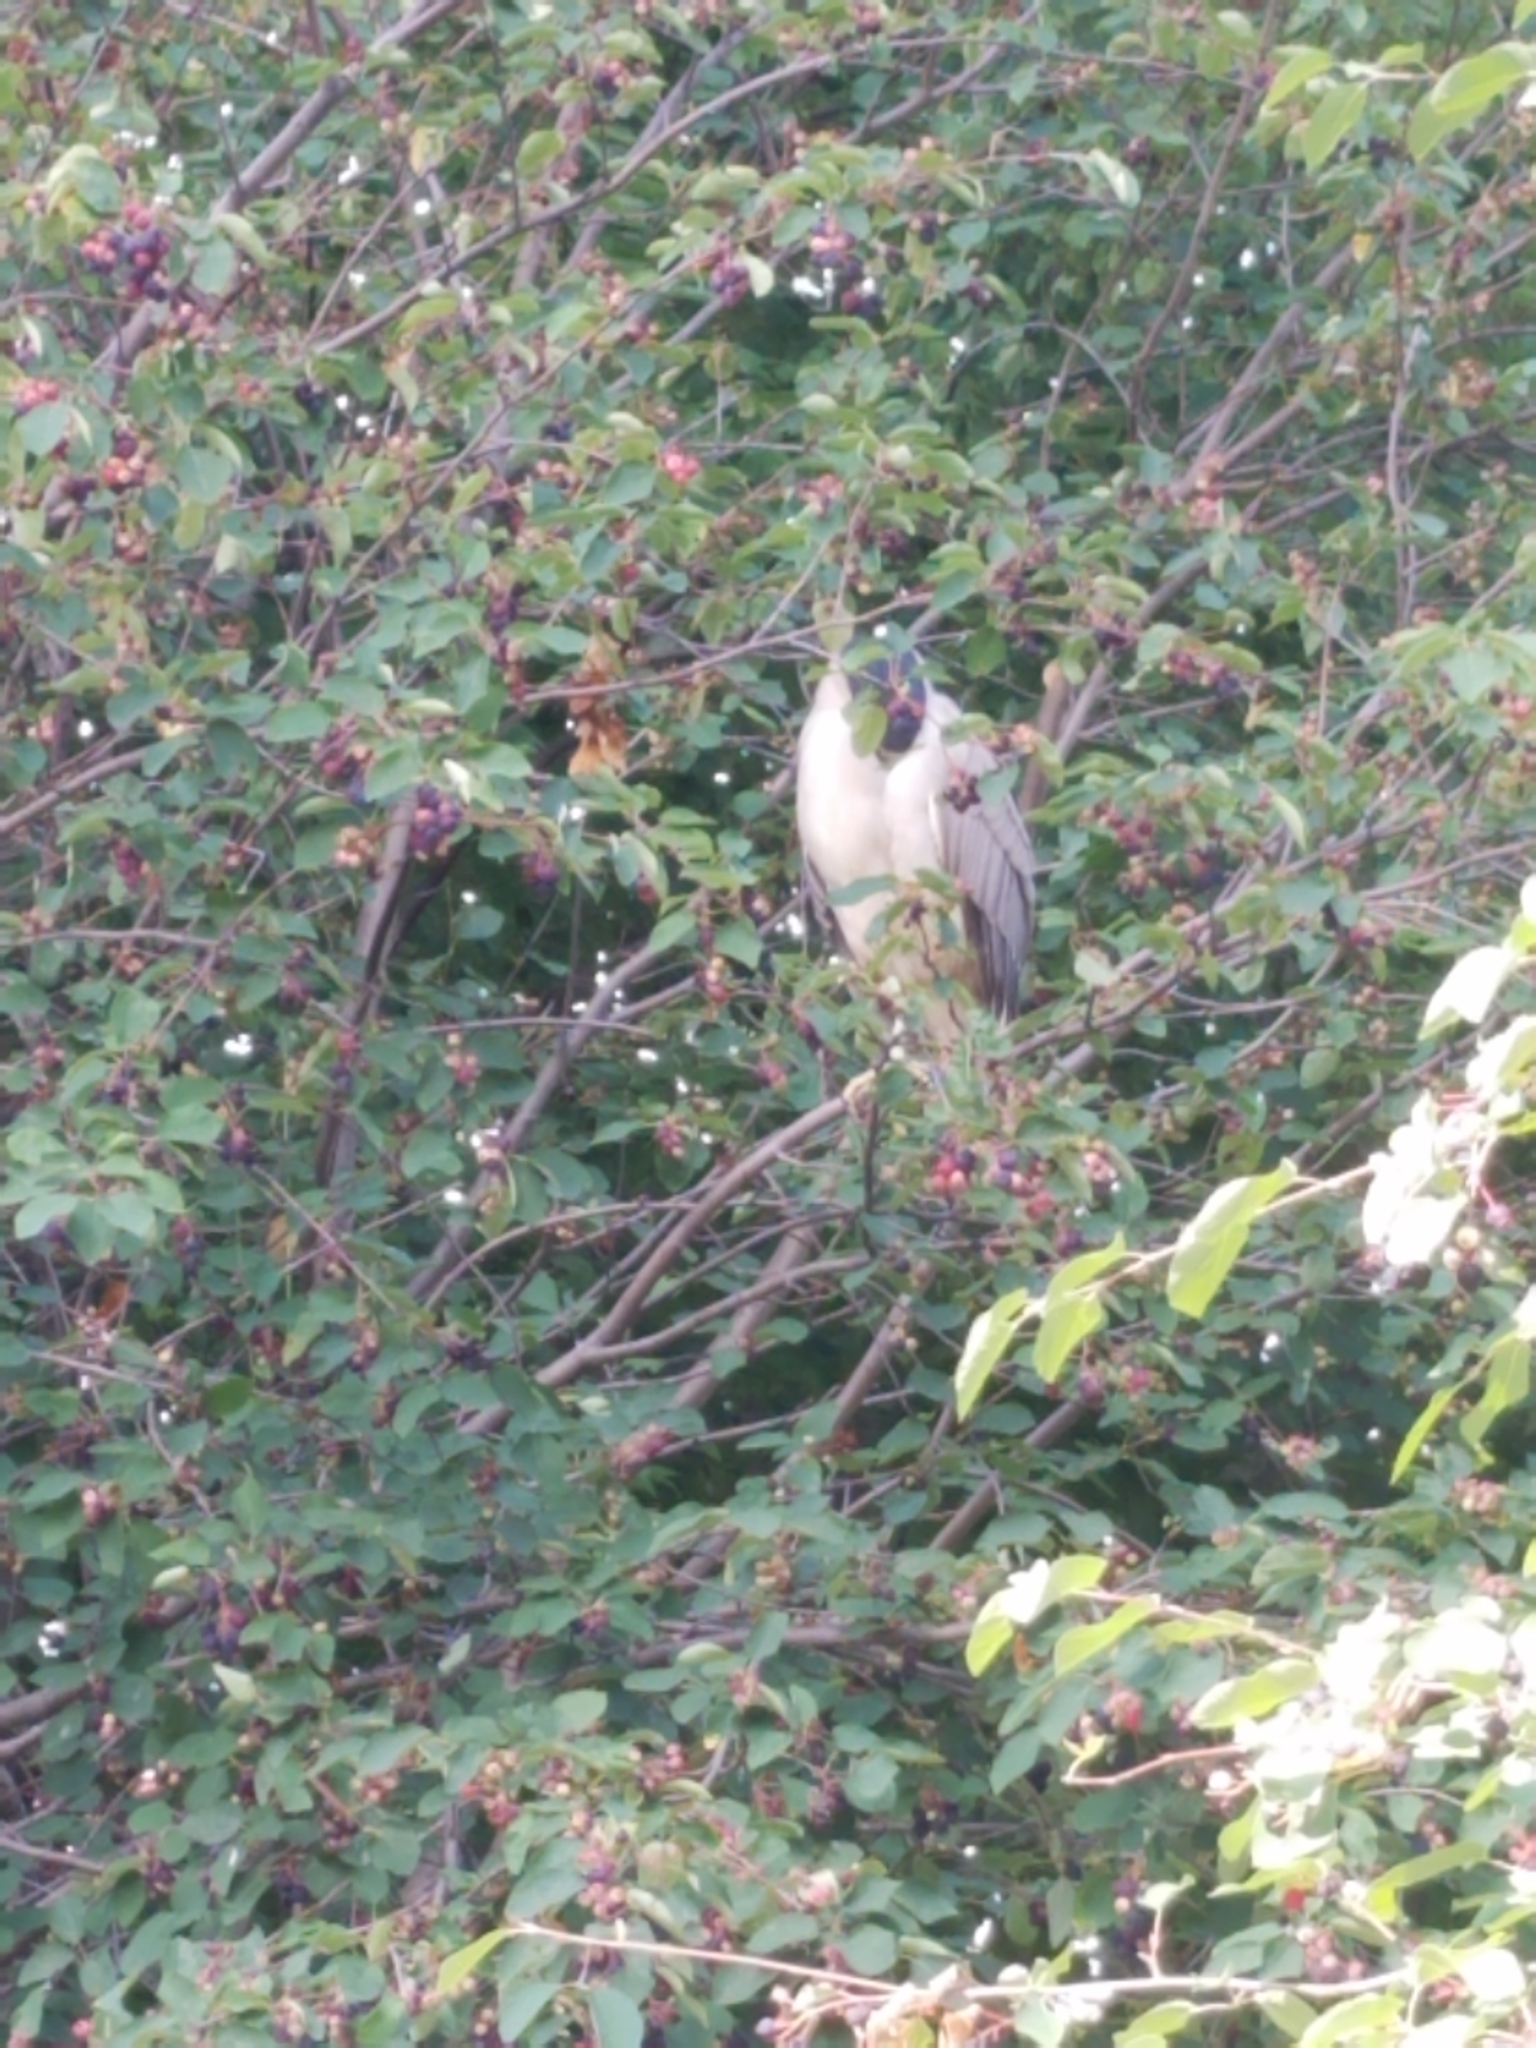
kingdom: Animalia
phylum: Chordata
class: Aves
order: Pelecaniformes
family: Ardeidae
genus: Nycticorax
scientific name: Nycticorax nycticorax
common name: Black-crowned night heron
